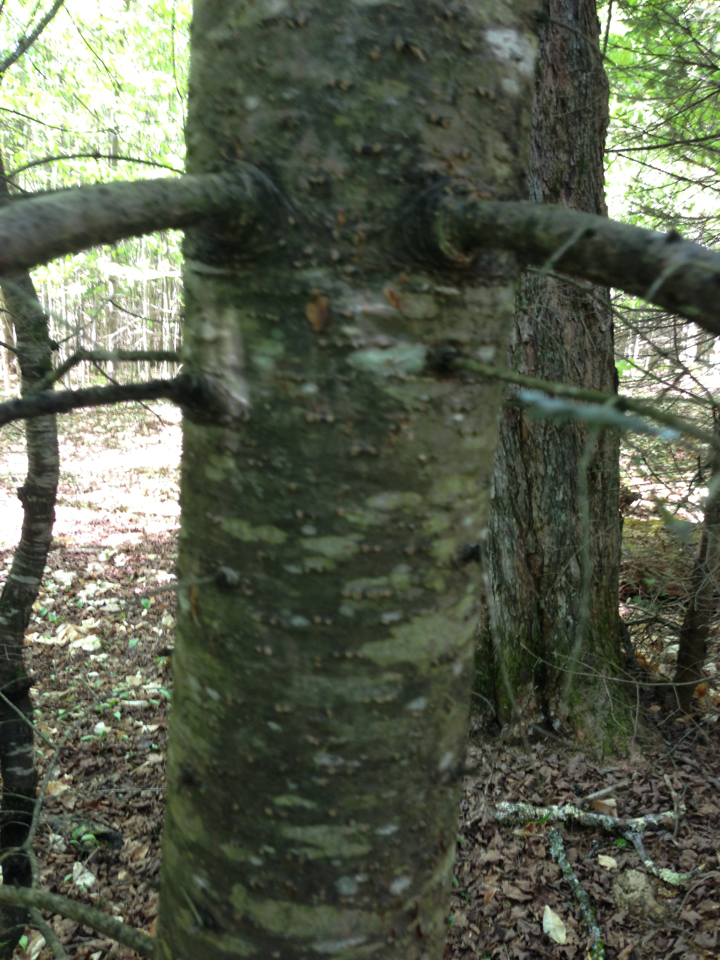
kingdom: Plantae
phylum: Tracheophyta
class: Pinopsida
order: Pinales
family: Pinaceae
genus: Abies
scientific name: Abies balsamea
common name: Balsam fir
